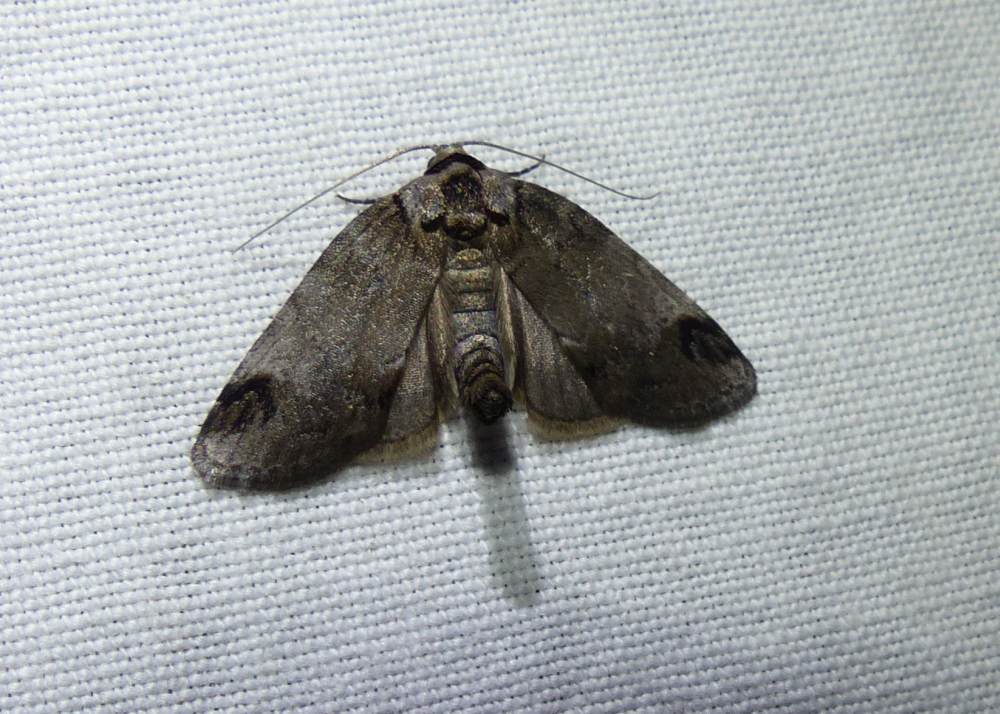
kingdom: Animalia
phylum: Arthropoda
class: Insecta
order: Lepidoptera
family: Nolidae
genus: Baileya
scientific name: Baileya dormitans
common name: Sleeping baileya moth
